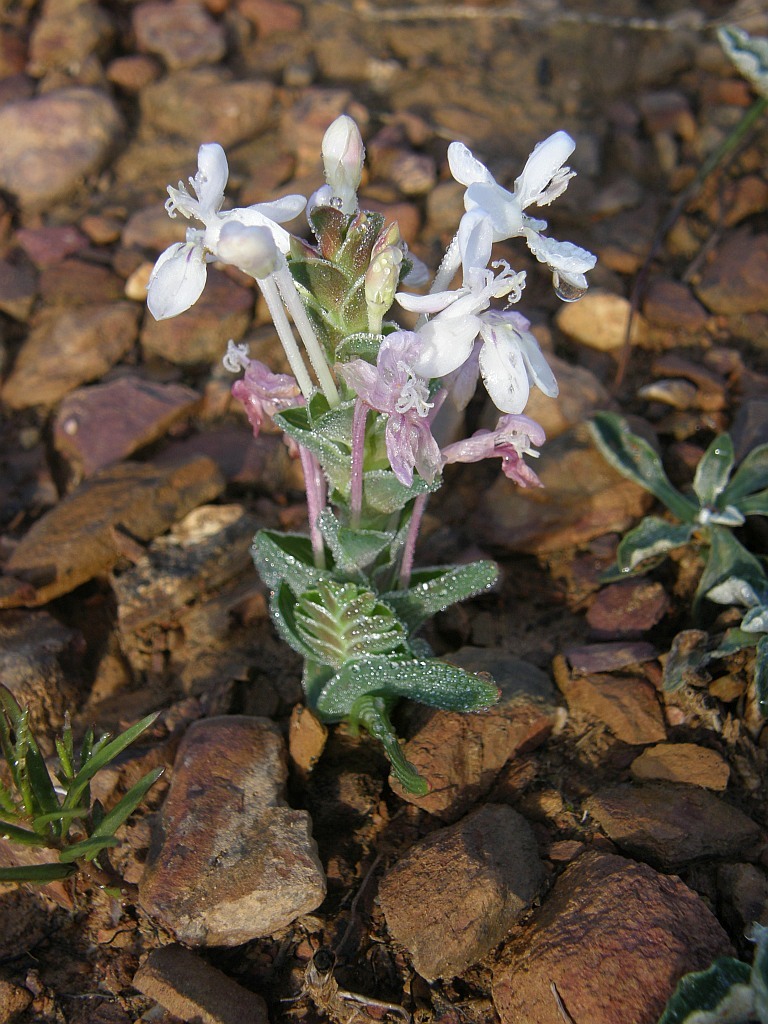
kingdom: Plantae
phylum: Tracheophyta
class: Liliopsida
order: Asparagales
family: Iridaceae
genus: Lapeirousia
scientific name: Lapeirousia pyramidalis
